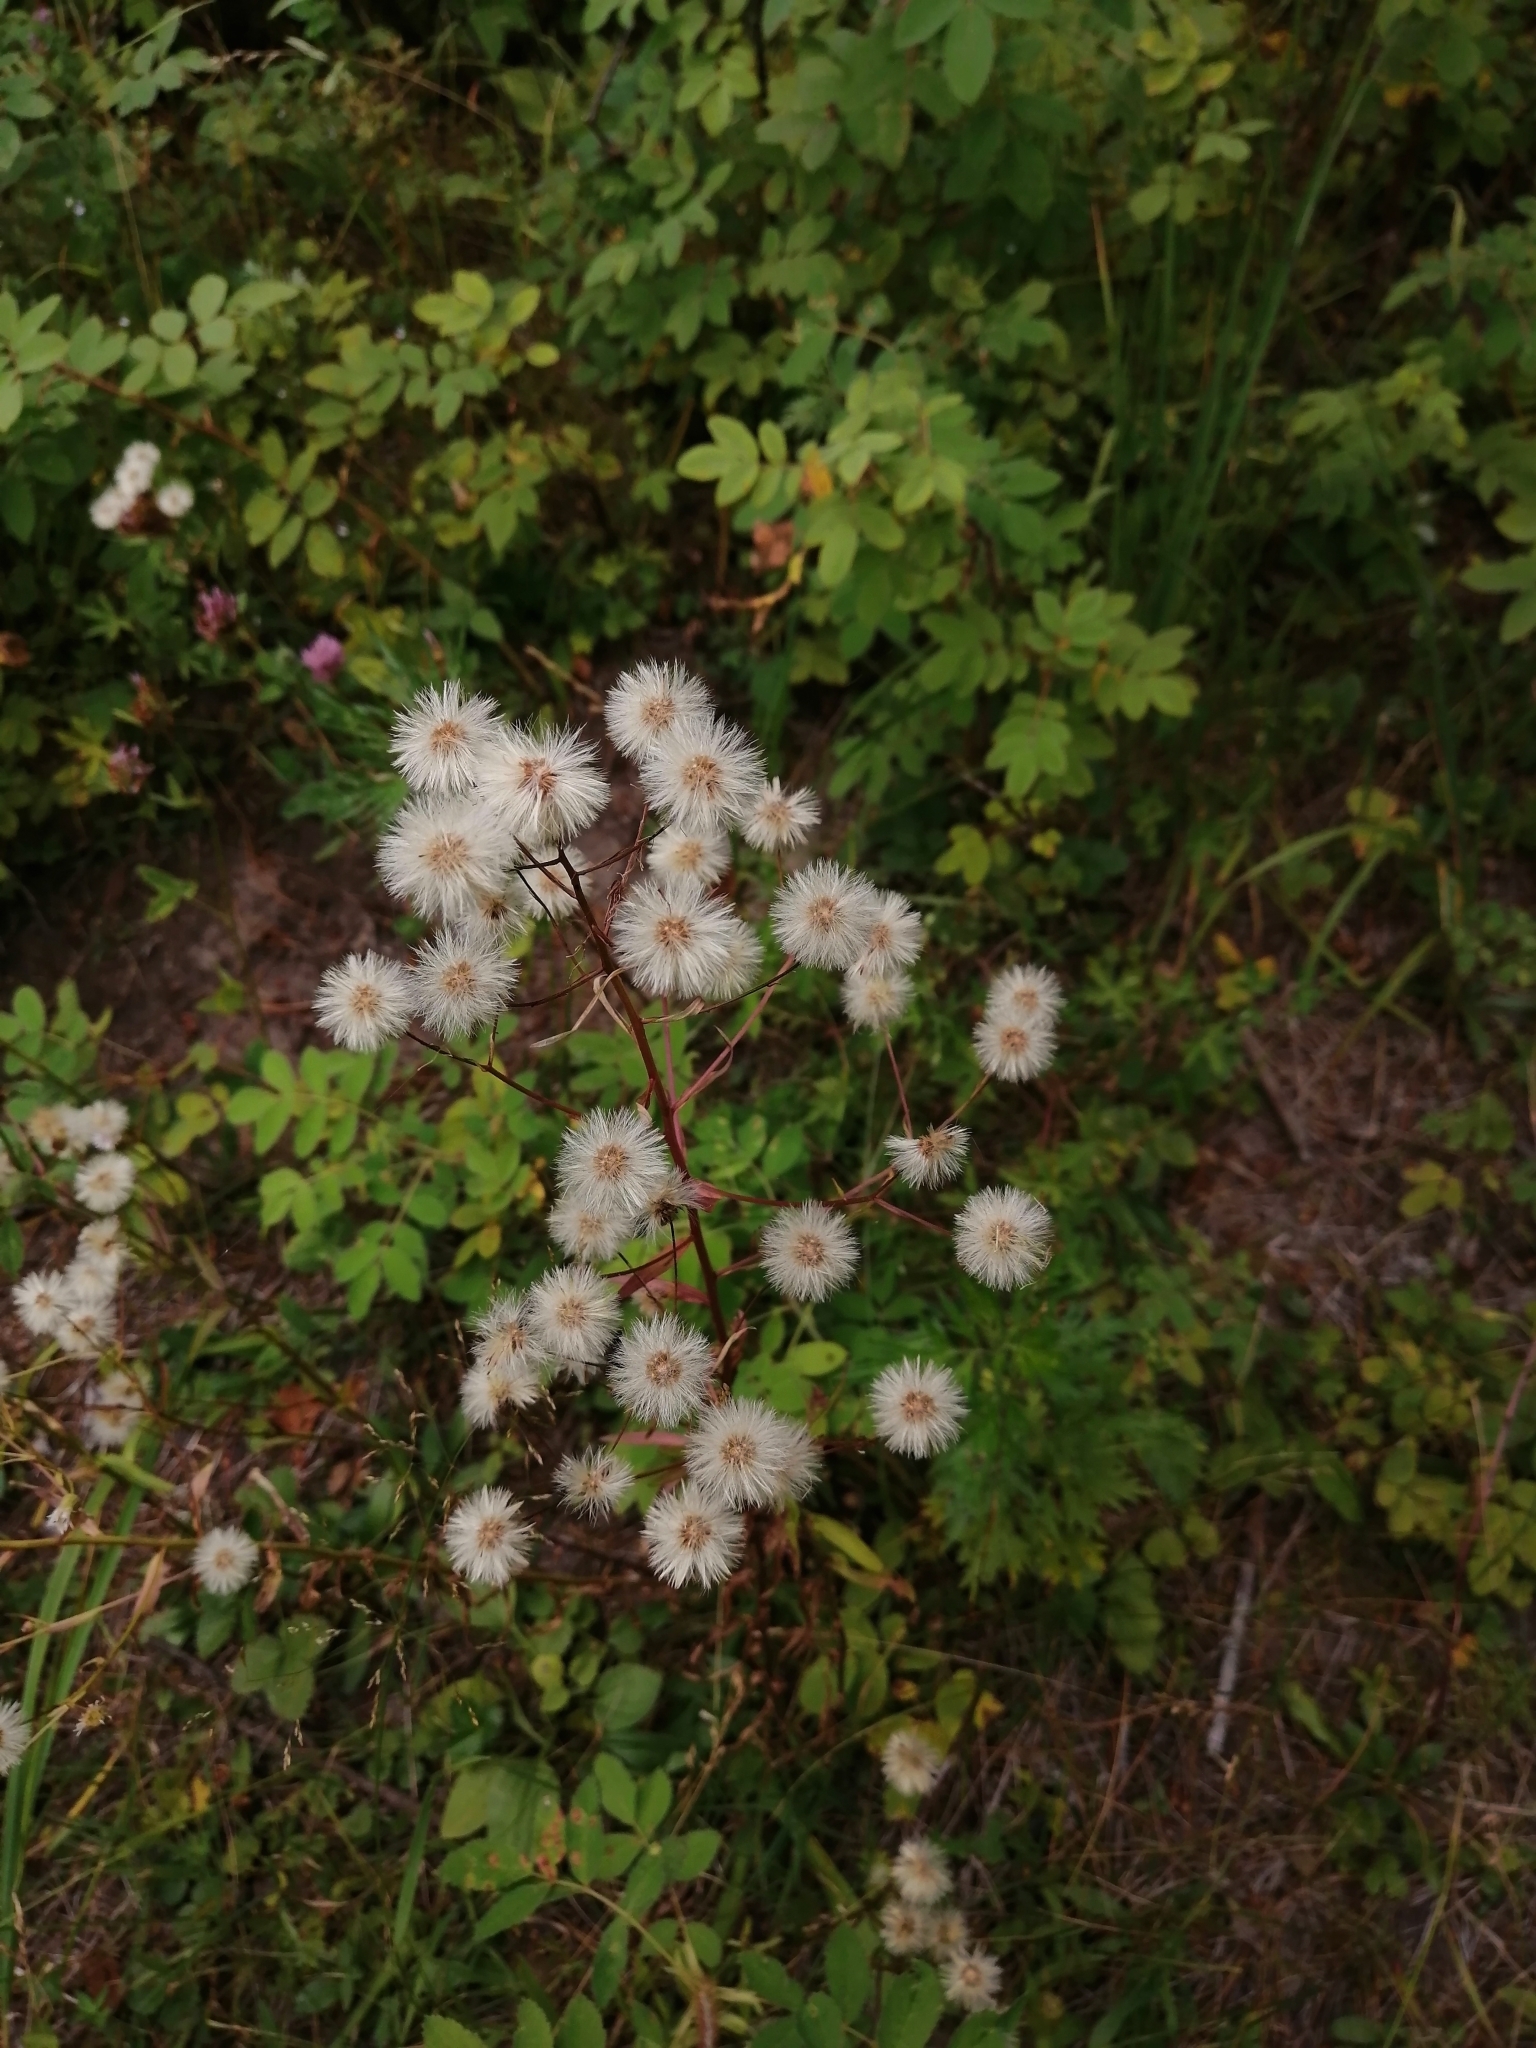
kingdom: Plantae
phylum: Tracheophyta
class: Magnoliopsida
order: Asterales
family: Asteraceae
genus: Erigeron
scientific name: Erigeron acris
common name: Blue fleabane
